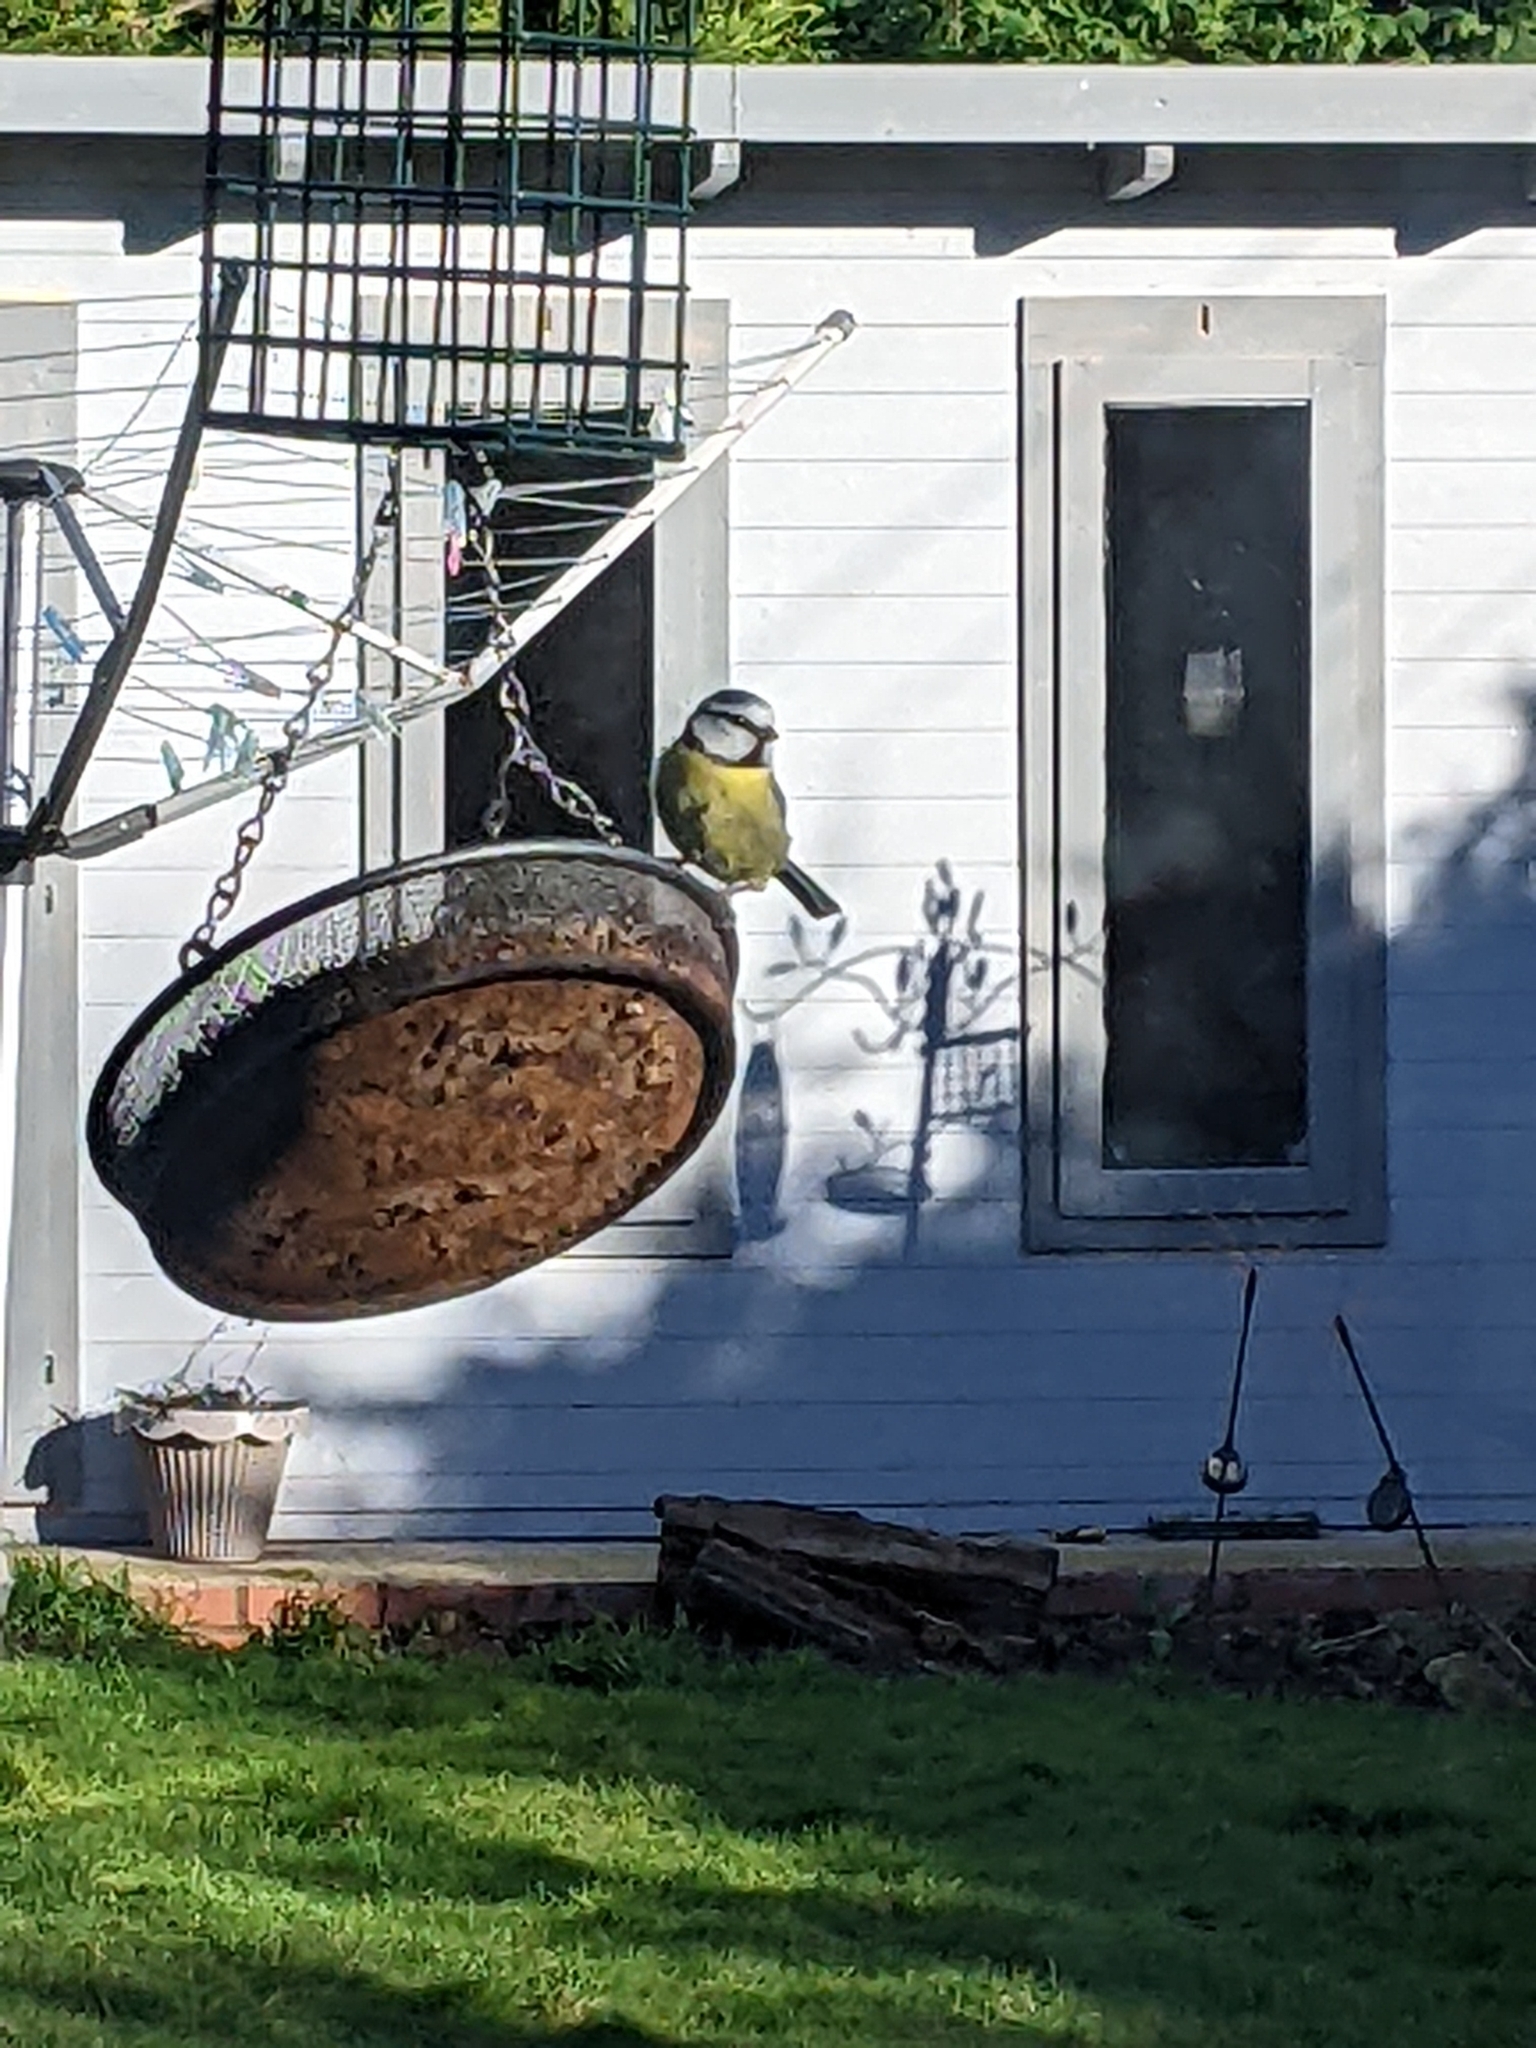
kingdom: Animalia
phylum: Chordata
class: Aves
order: Passeriformes
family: Paridae
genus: Cyanistes
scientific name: Cyanistes caeruleus
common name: Eurasian blue tit
